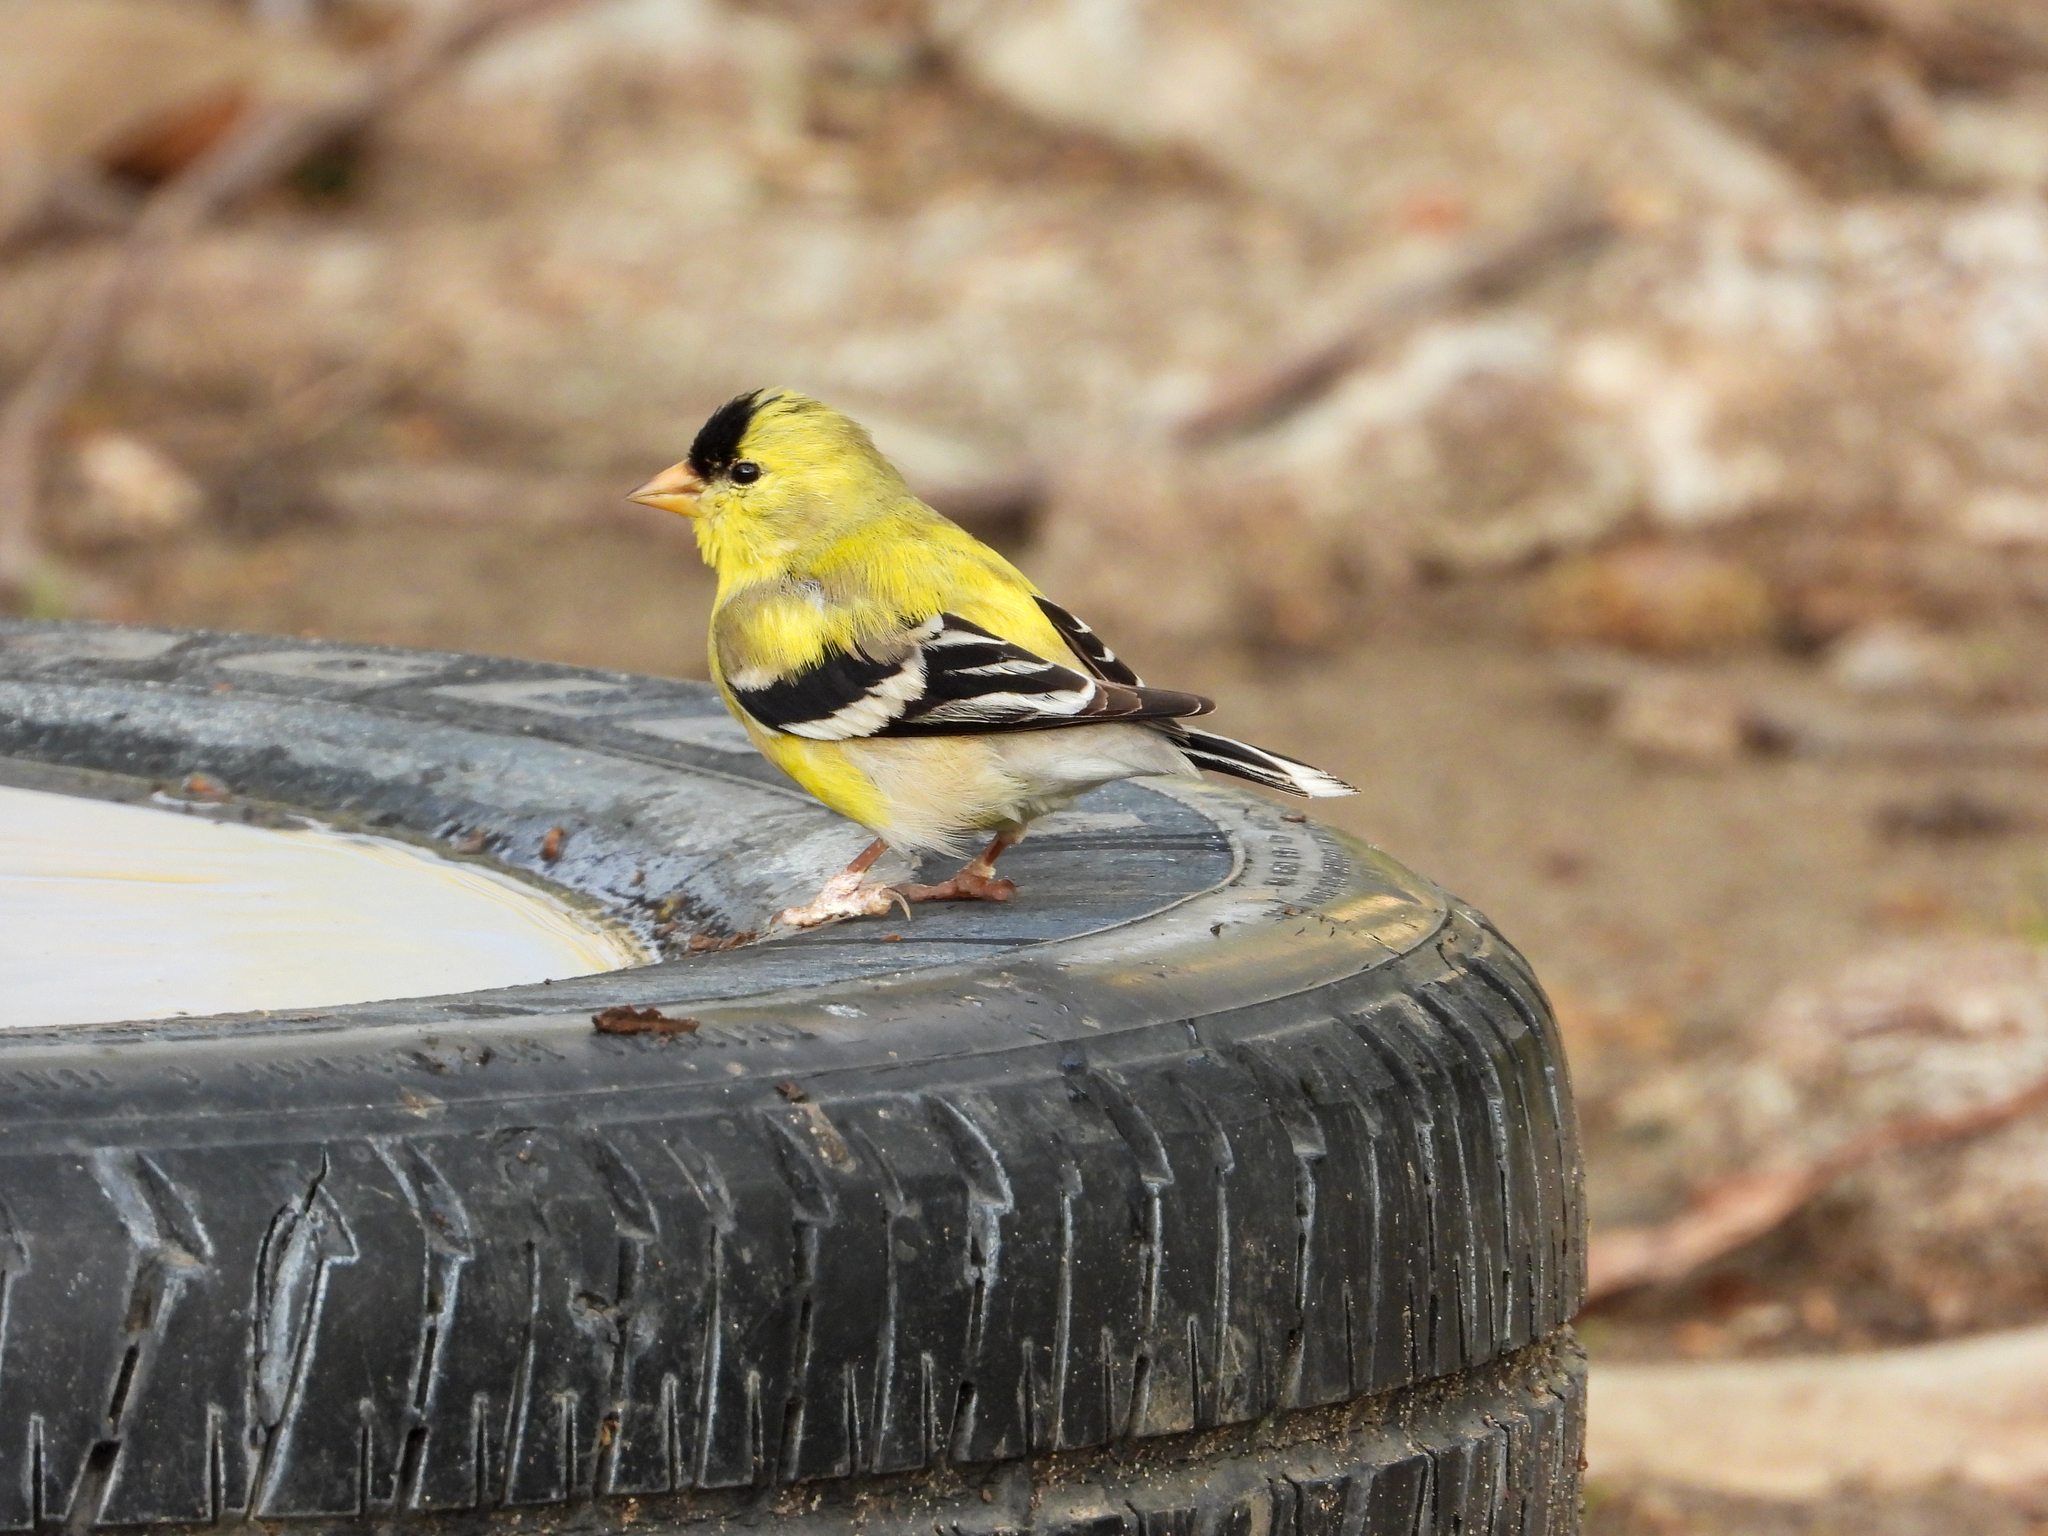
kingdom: Animalia
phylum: Chordata
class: Aves
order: Passeriformes
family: Fringillidae
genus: Spinus
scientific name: Spinus tristis
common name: American goldfinch
